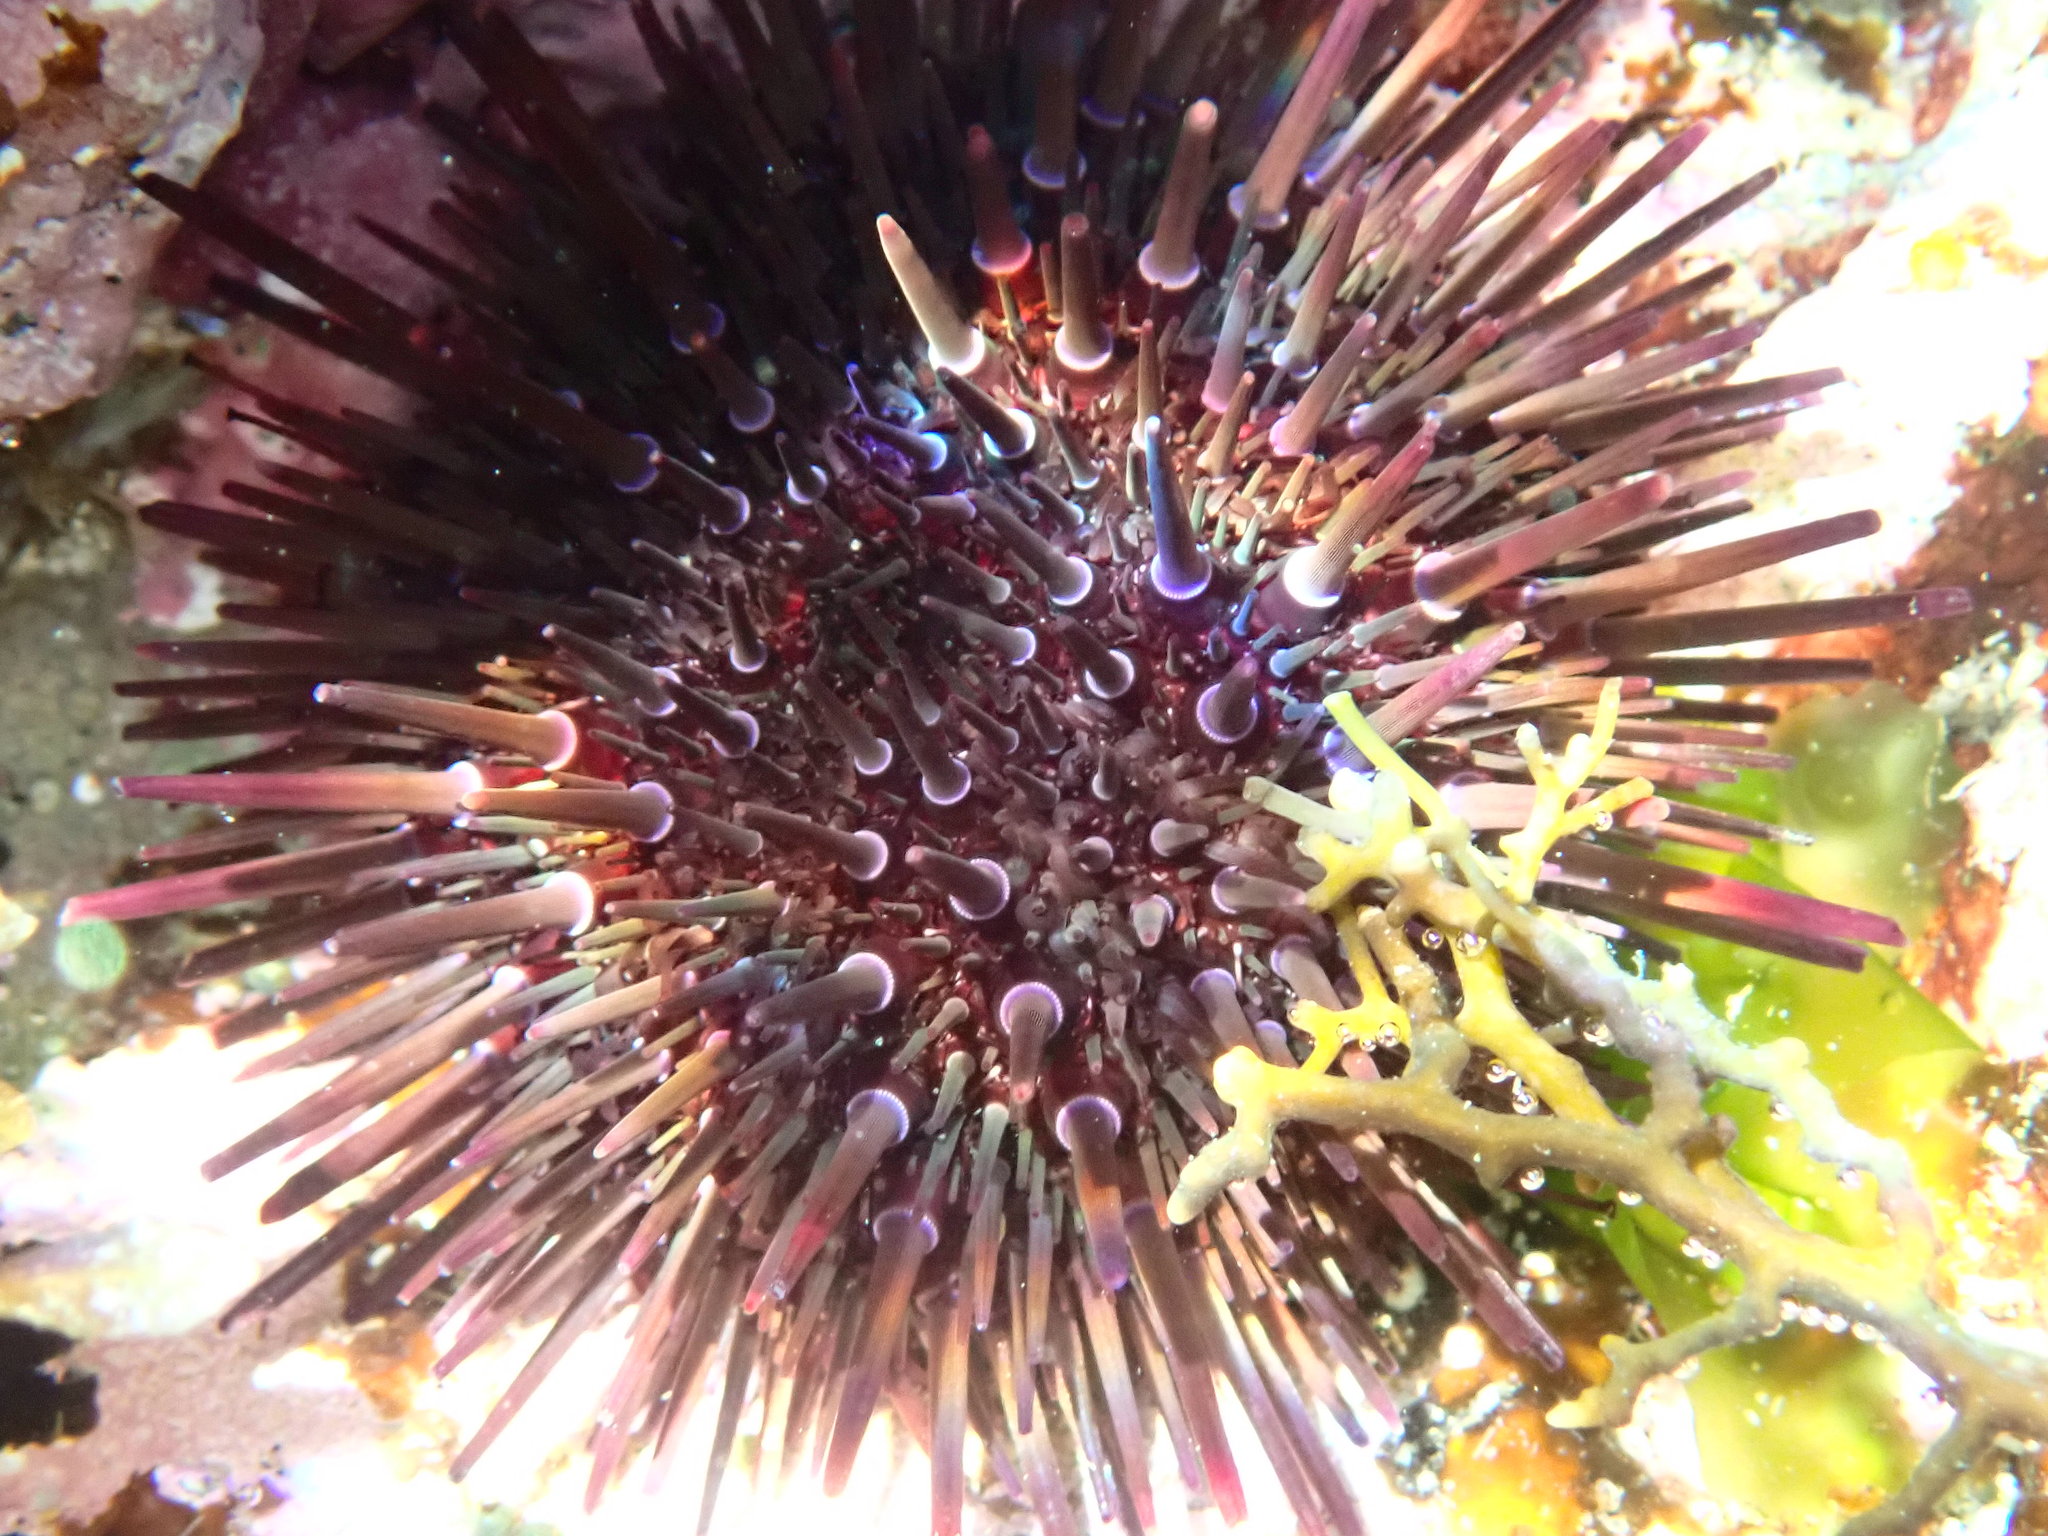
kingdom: Animalia
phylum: Echinodermata
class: Echinoidea
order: Camarodonta
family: Echinometridae
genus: Heliocidaris
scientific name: Heliocidaris erythrogramma
